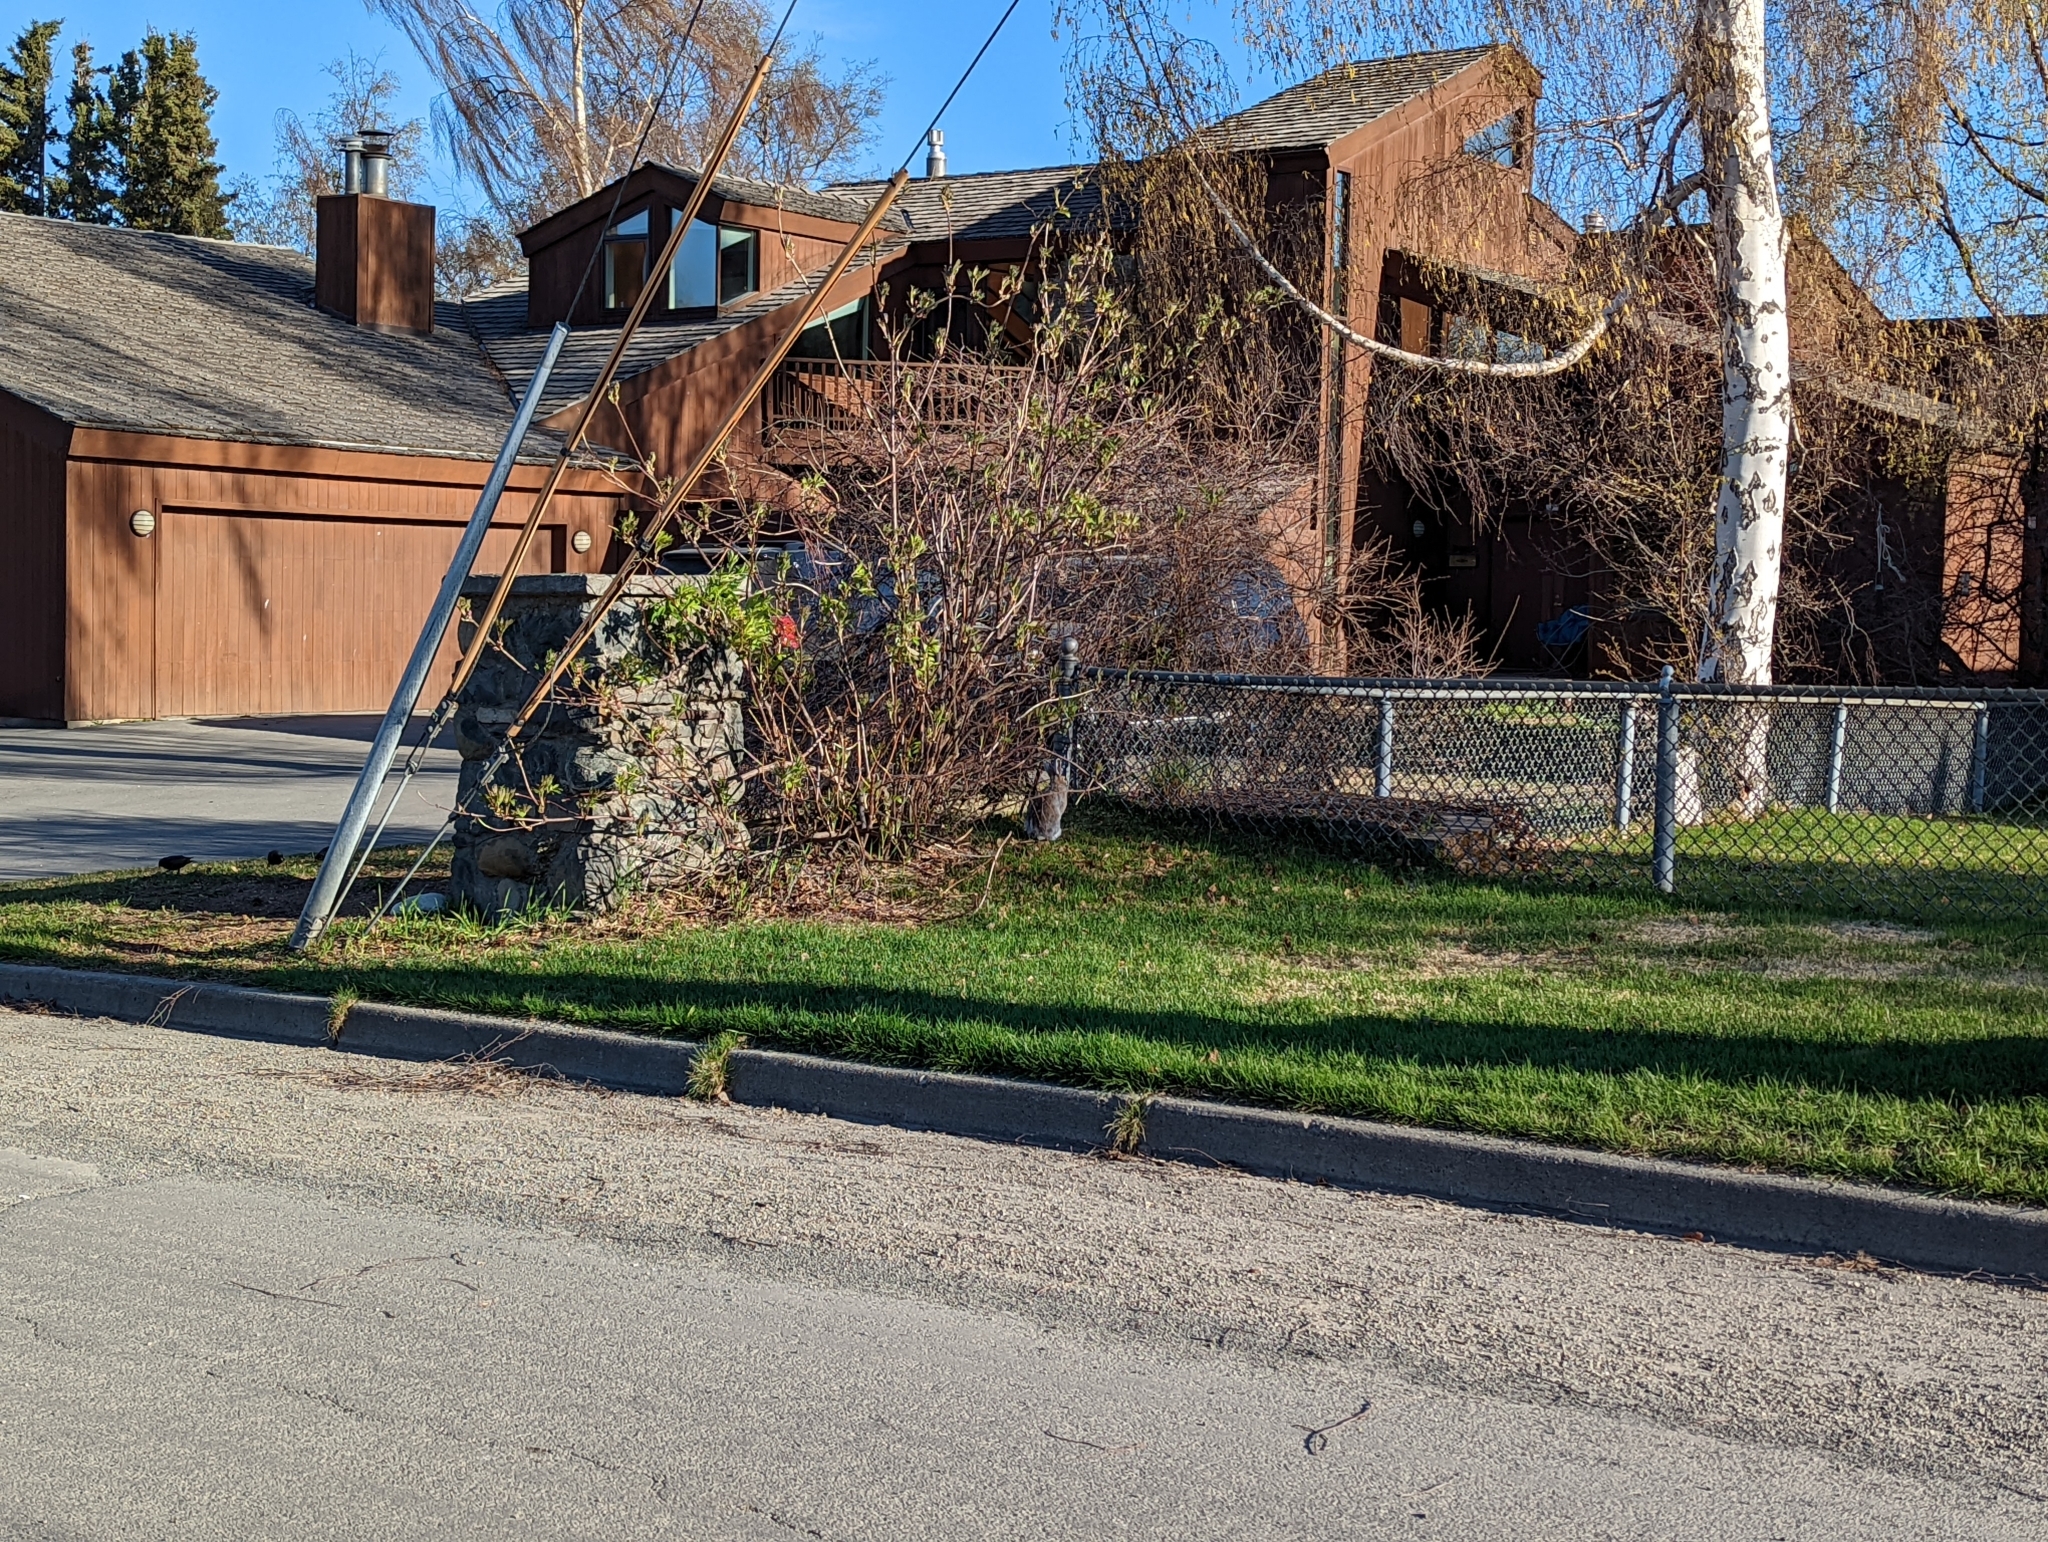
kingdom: Animalia
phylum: Chordata
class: Mammalia
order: Lagomorpha
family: Leporidae
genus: Lepus
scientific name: Lepus americanus
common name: Snowshoe hare
